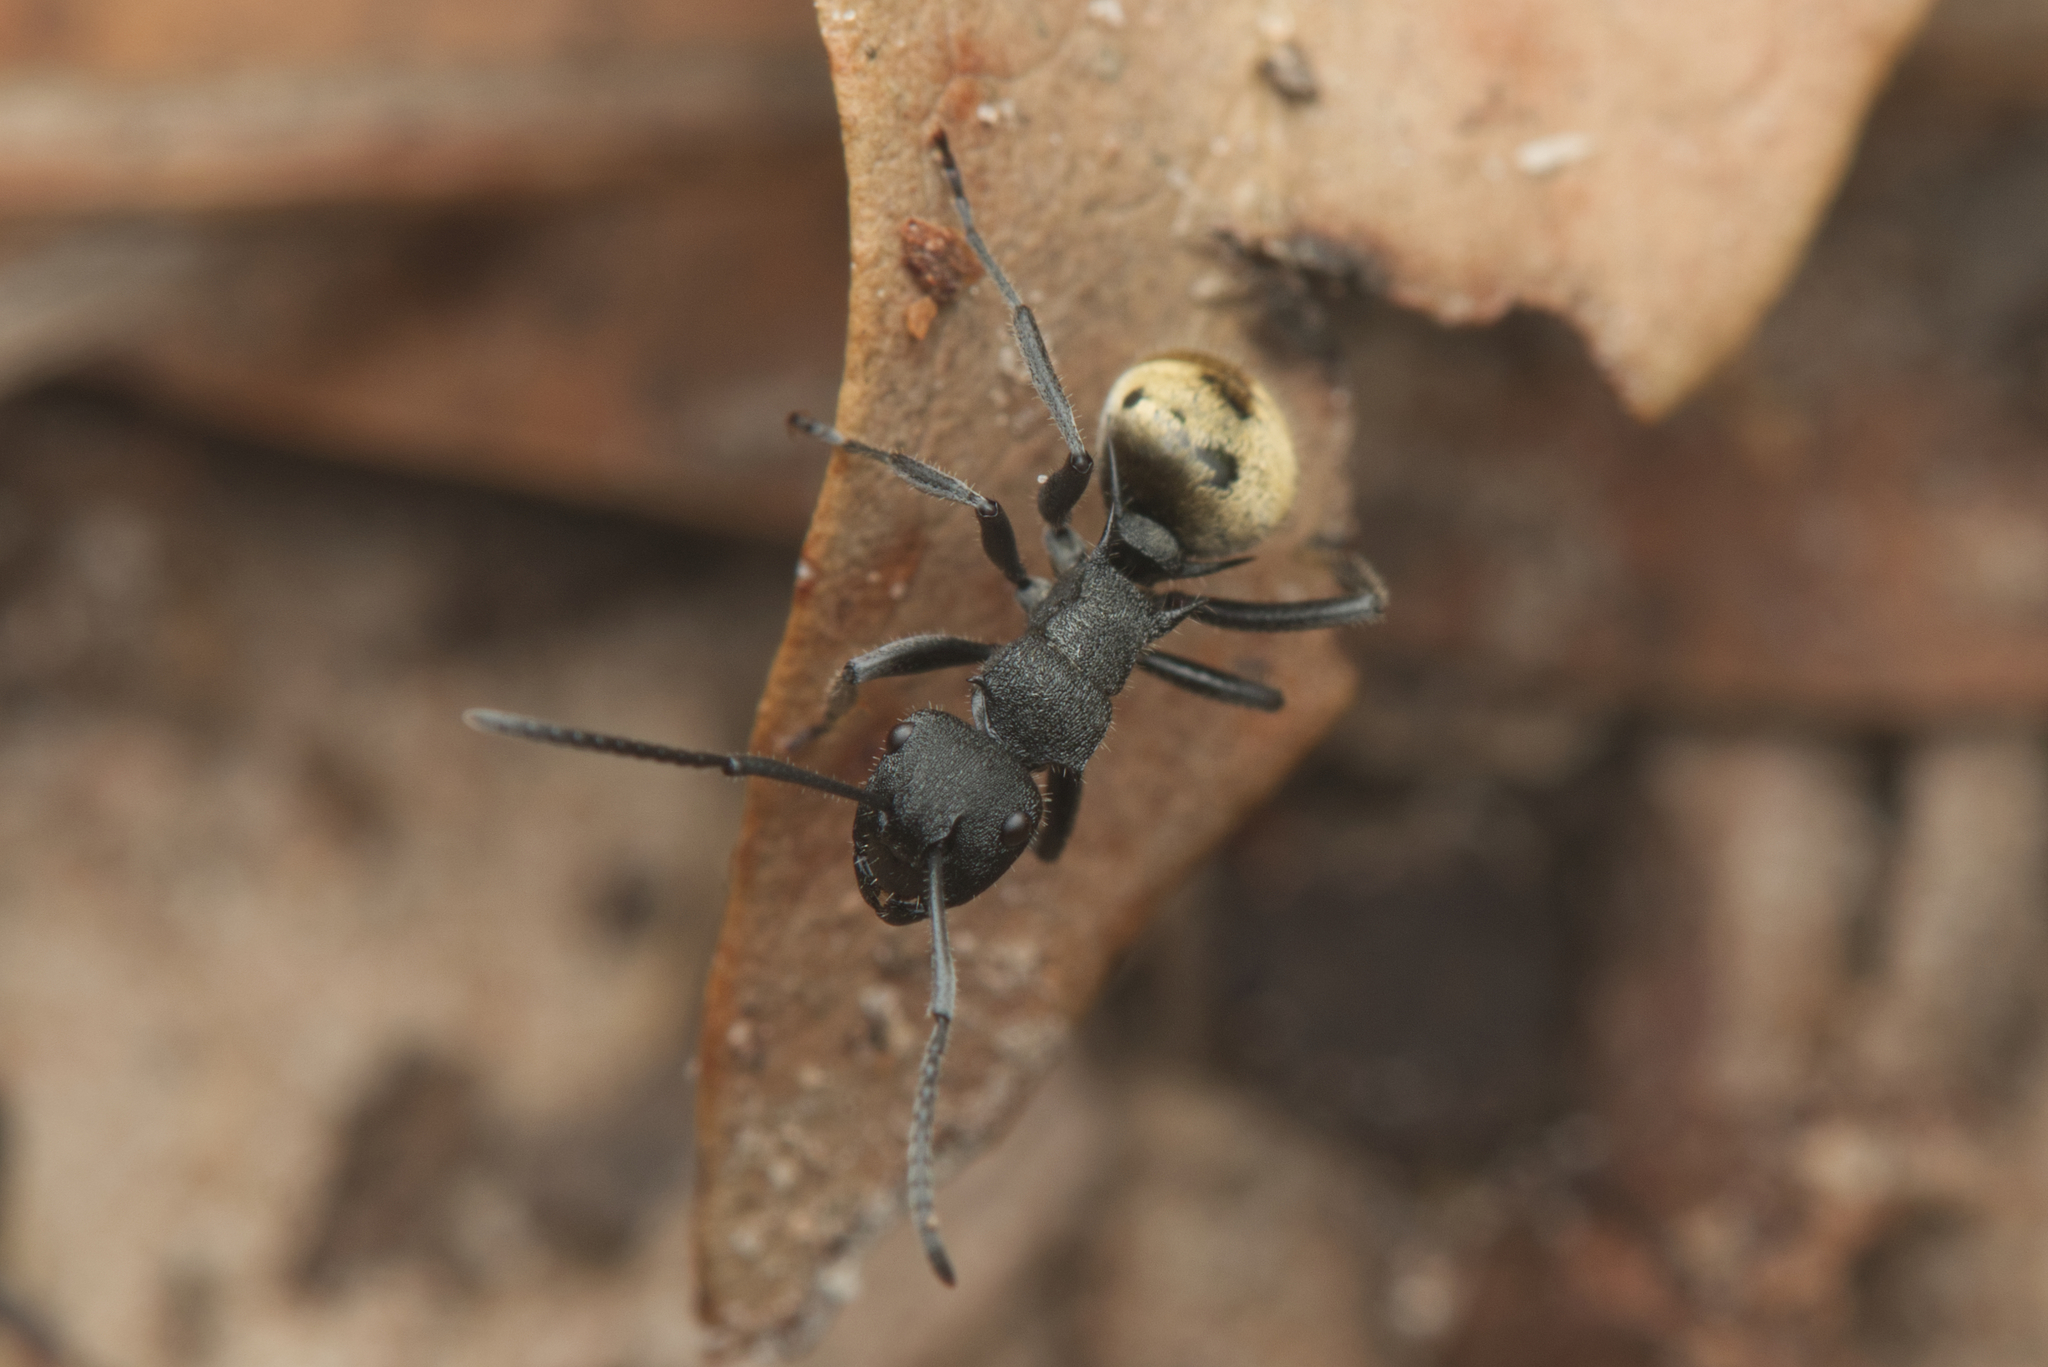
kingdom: Animalia
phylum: Arthropoda
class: Insecta
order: Hymenoptera
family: Formicidae
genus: Polyrhachis
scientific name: Polyrhachis erato
